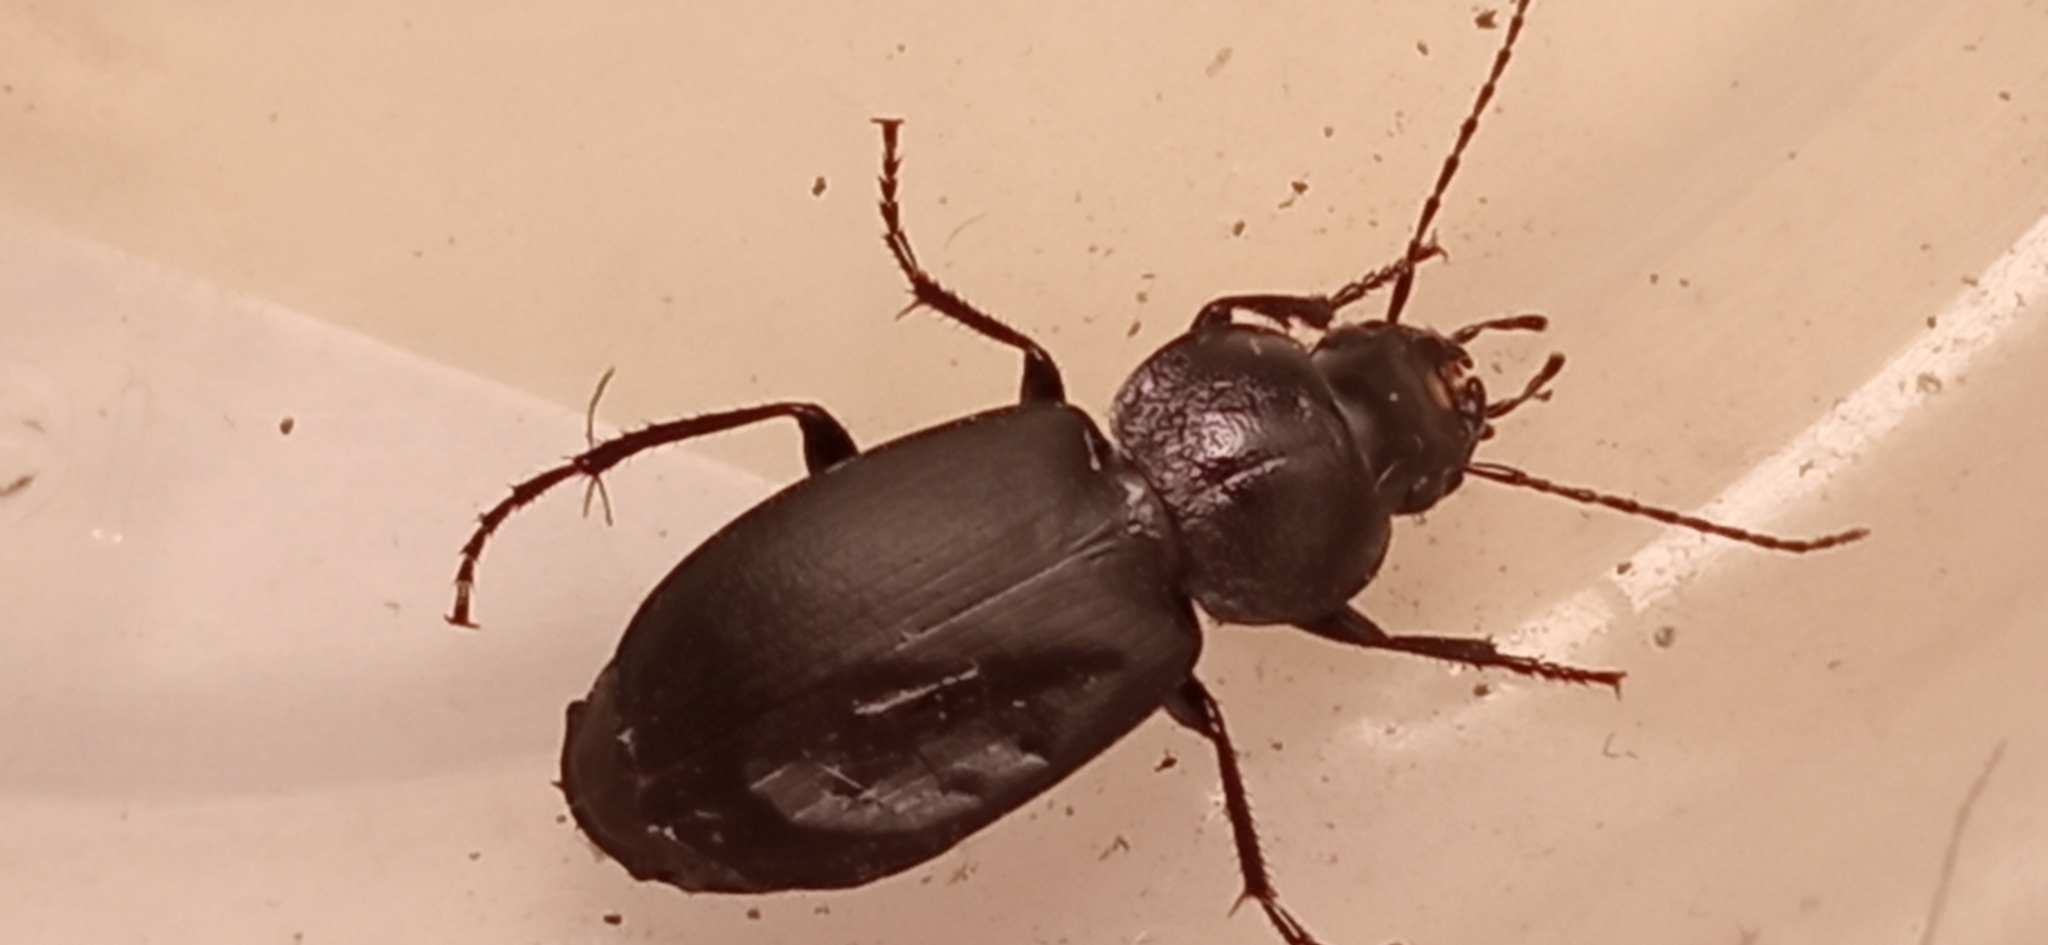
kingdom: Animalia
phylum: Arthropoda
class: Insecta
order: Coleoptera
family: Carabidae
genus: Licinus
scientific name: Licinus depressus
